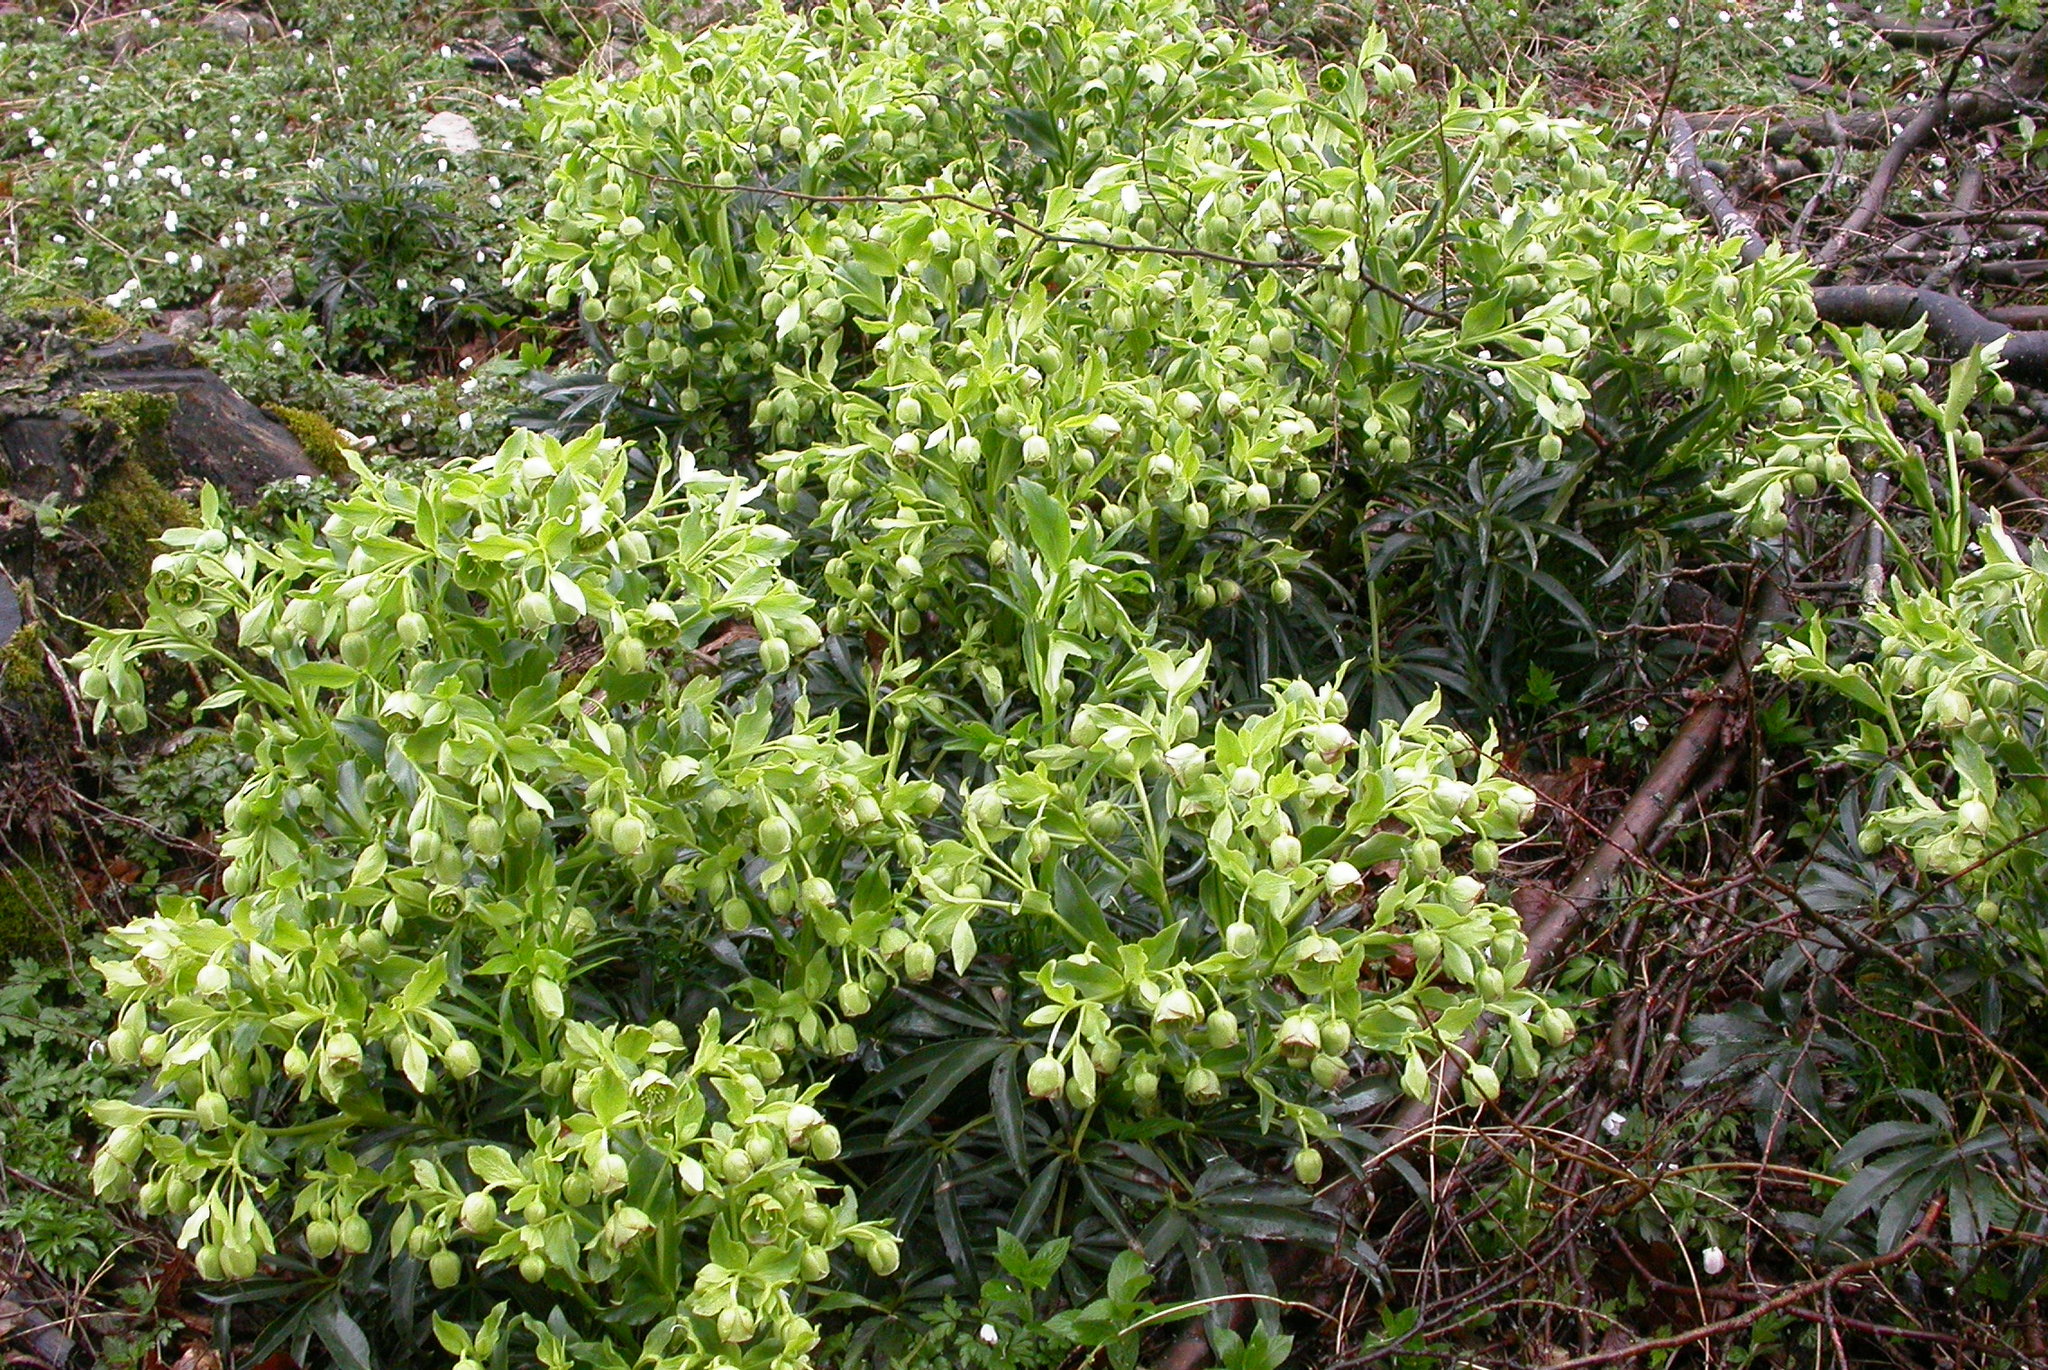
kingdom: Plantae
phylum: Tracheophyta
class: Magnoliopsida
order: Ranunculales
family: Ranunculaceae
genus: Helleborus
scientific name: Helleborus foetidus
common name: Stinking hellebore
